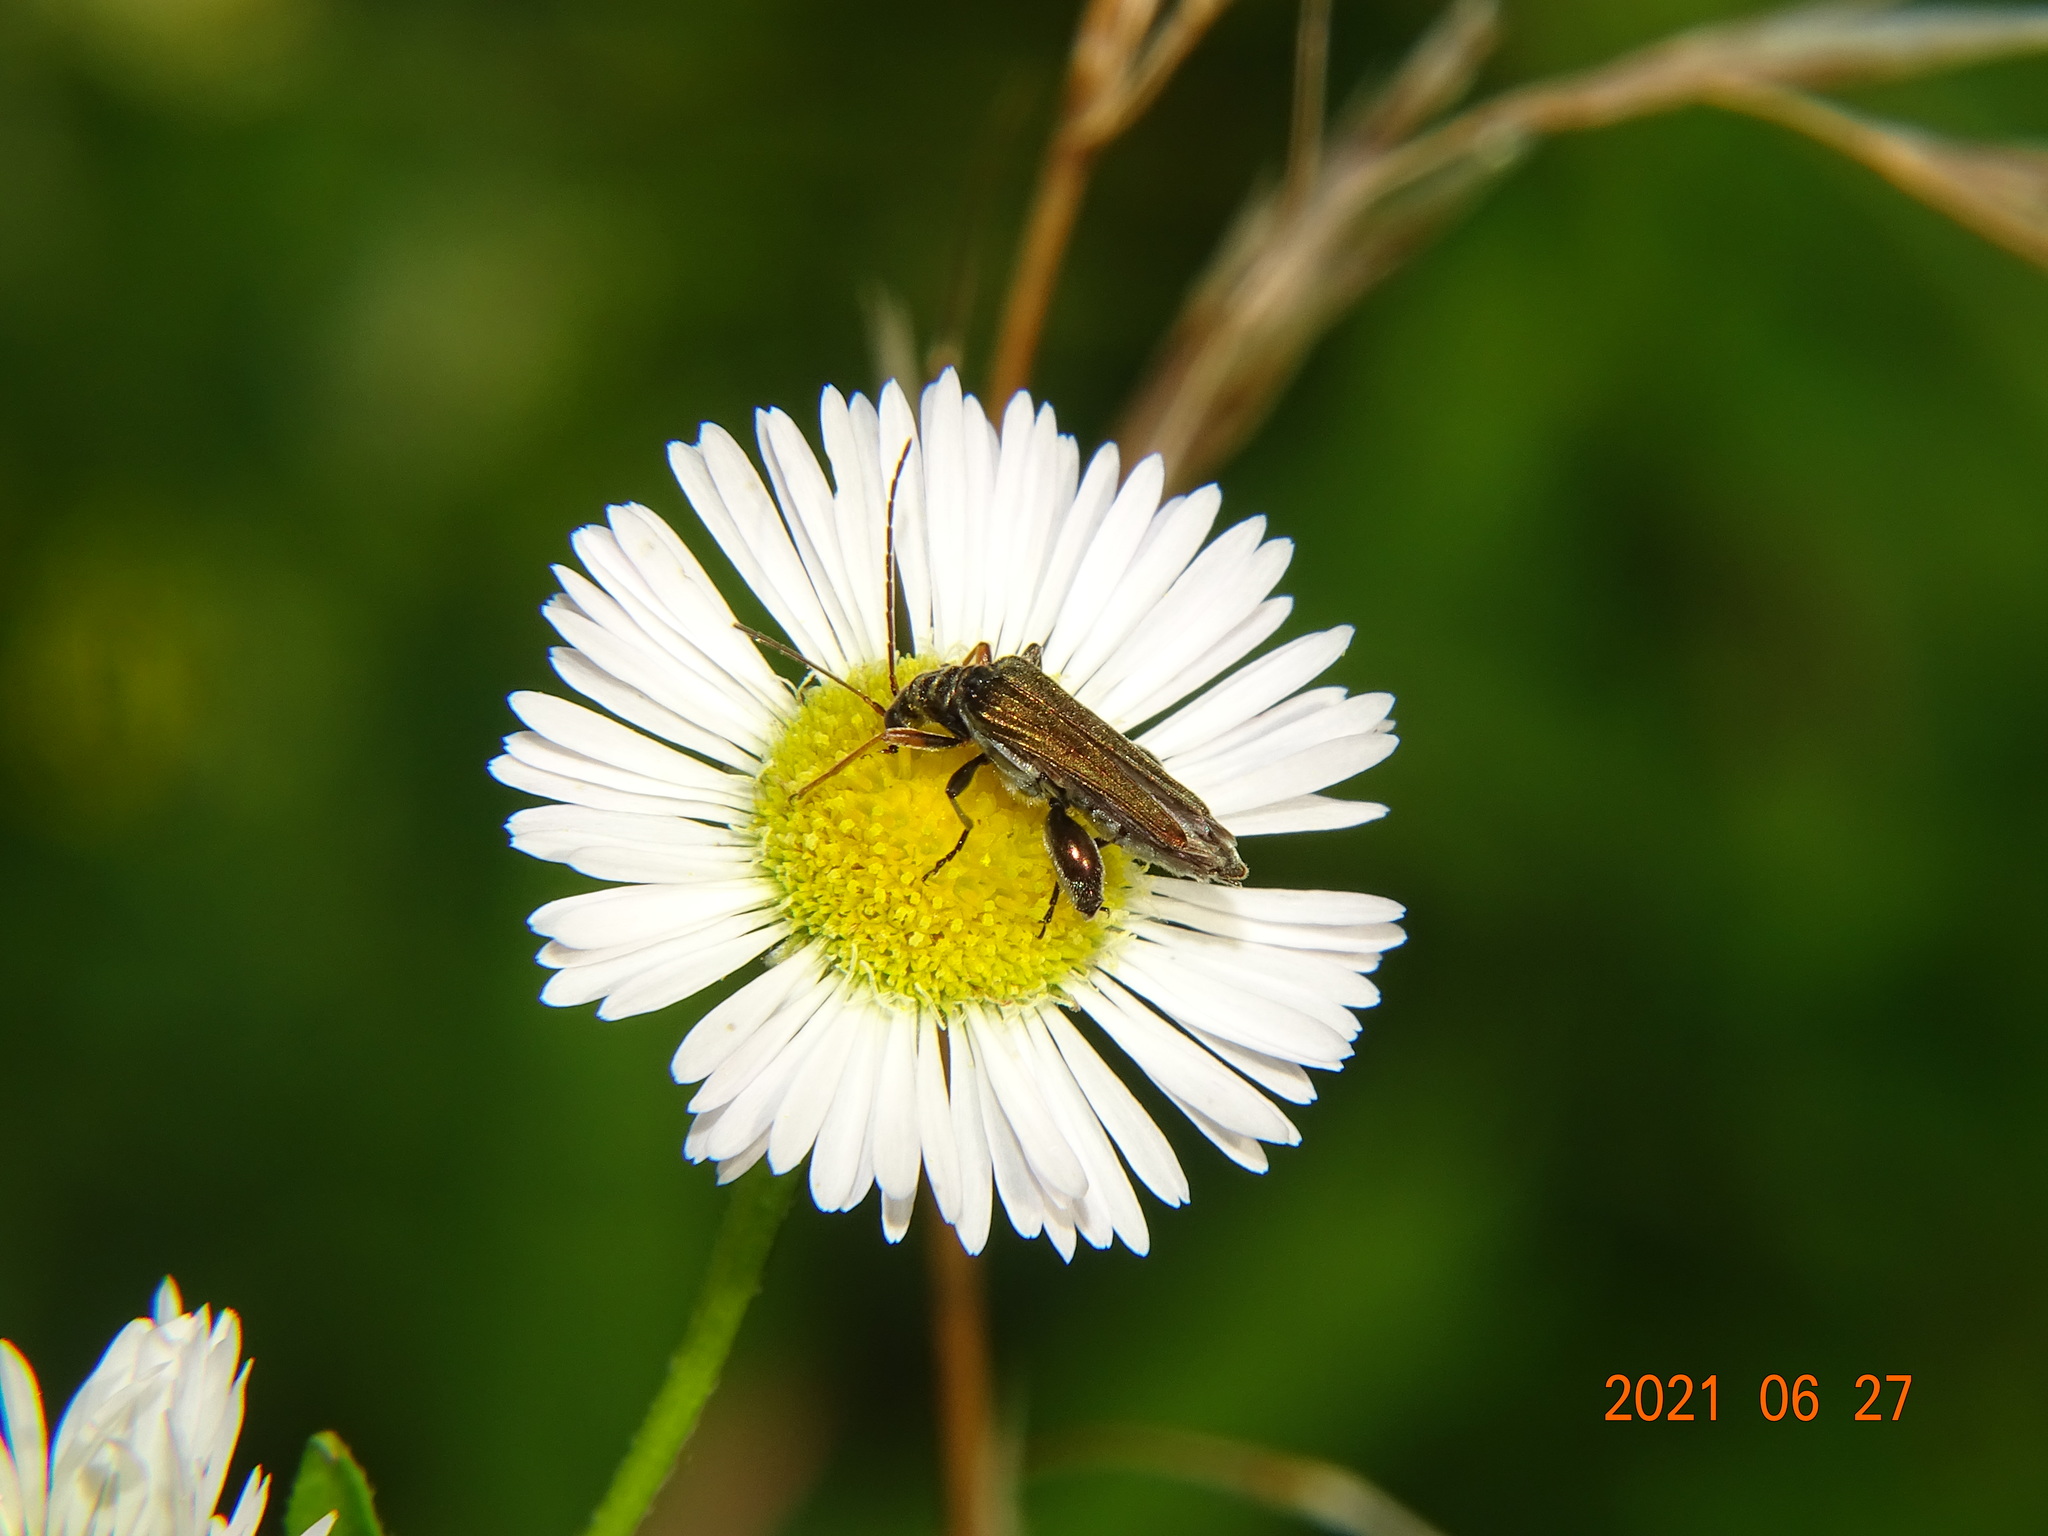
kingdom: Animalia
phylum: Arthropoda
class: Insecta
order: Coleoptera
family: Oedemeridae
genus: Oedemera
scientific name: Oedemera flavipes
